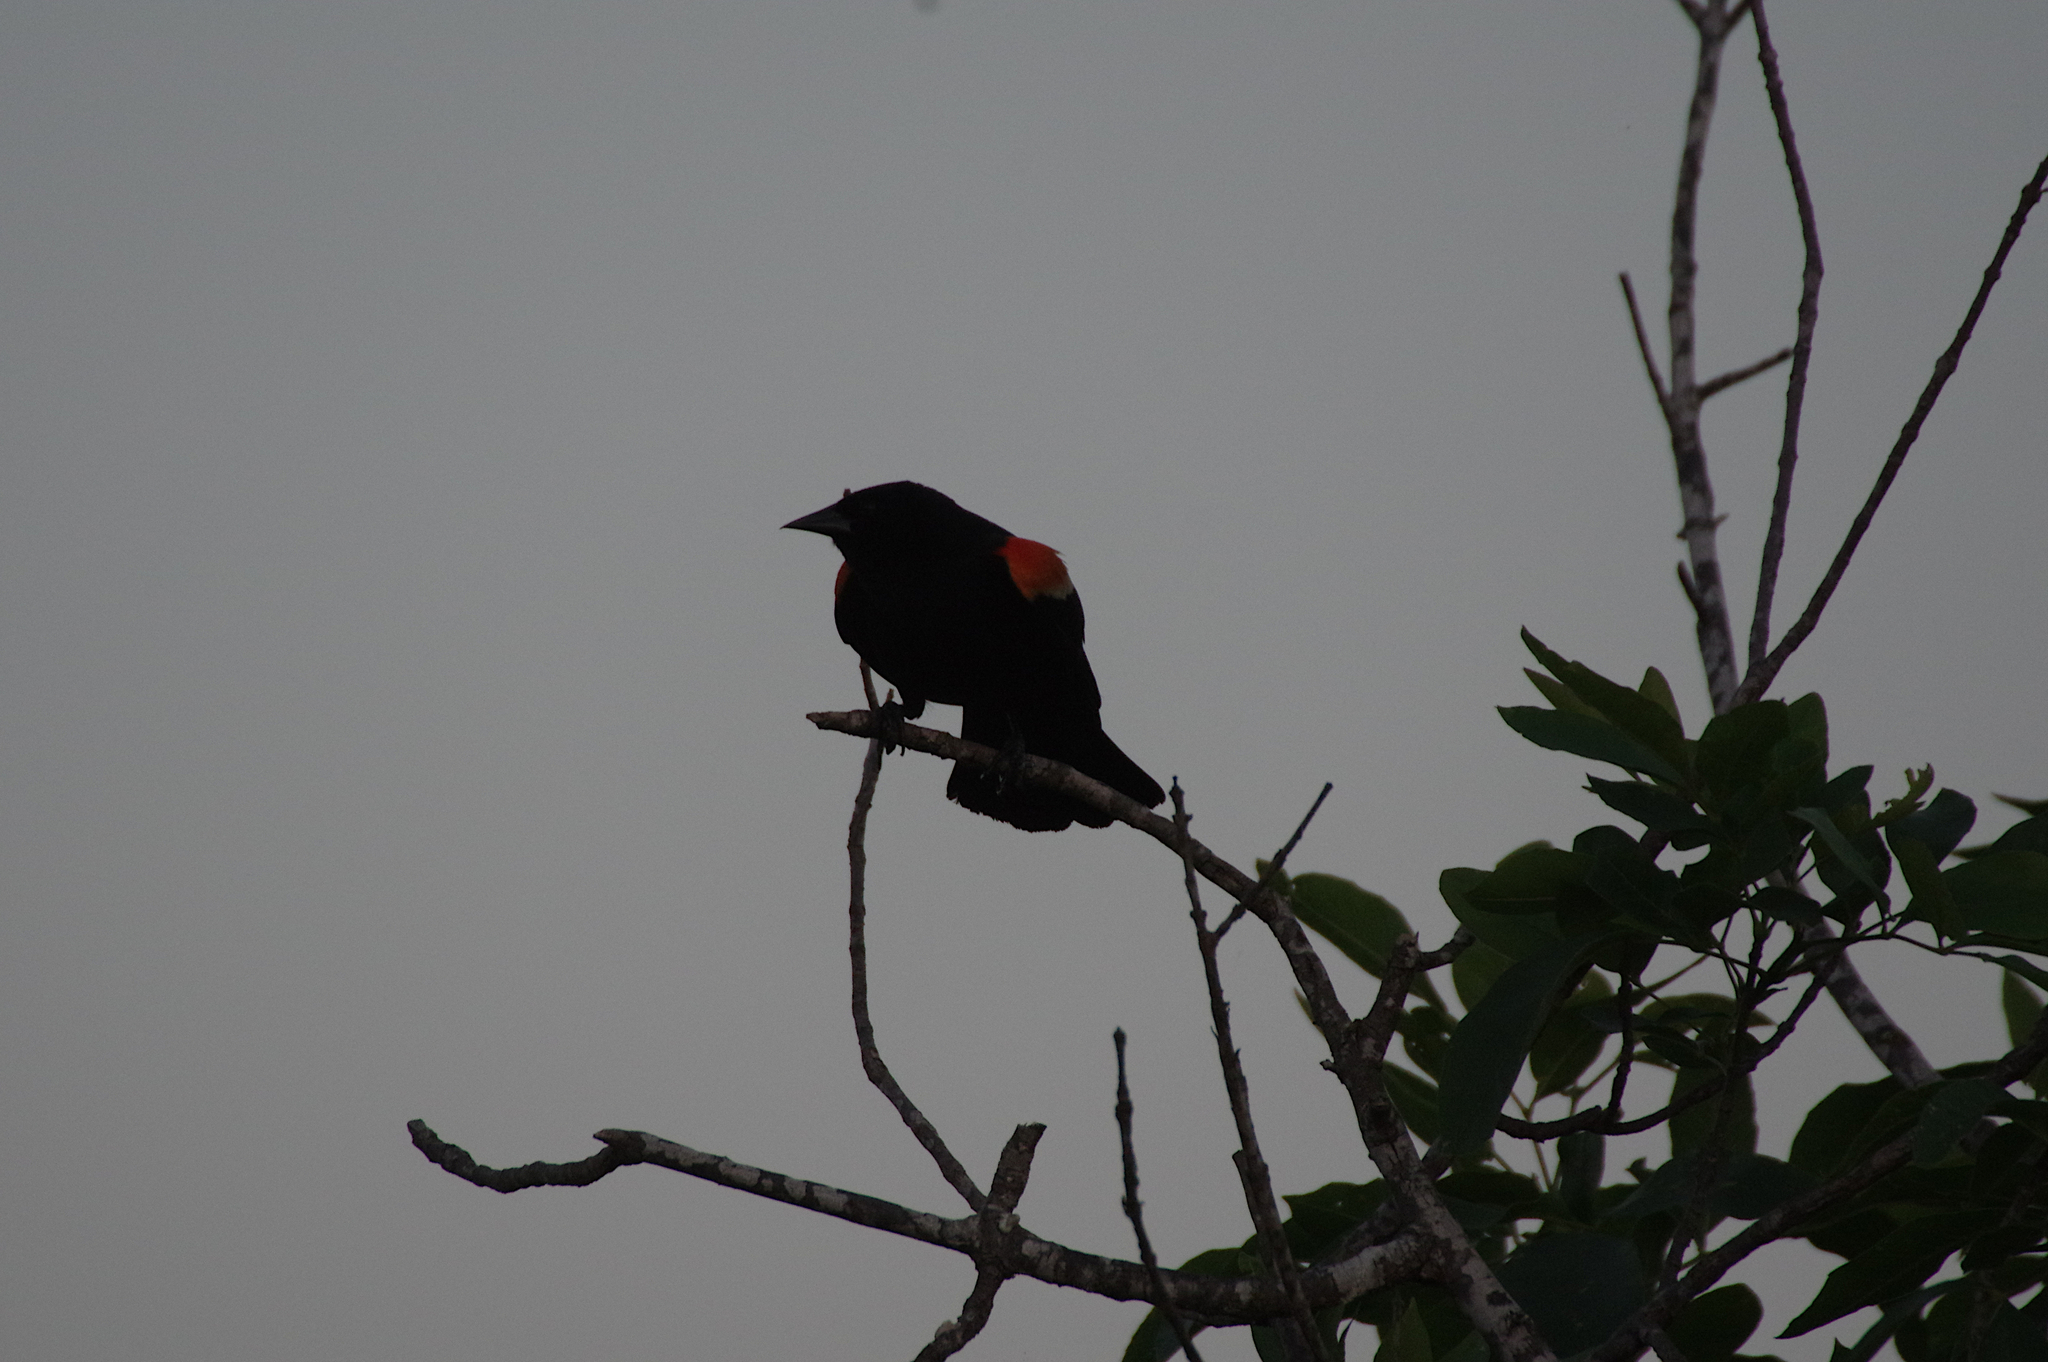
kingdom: Animalia
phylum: Chordata
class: Aves
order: Passeriformes
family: Icteridae
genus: Agelaius
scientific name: Agelaius phoeniceus
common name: Red-winged blackbird
